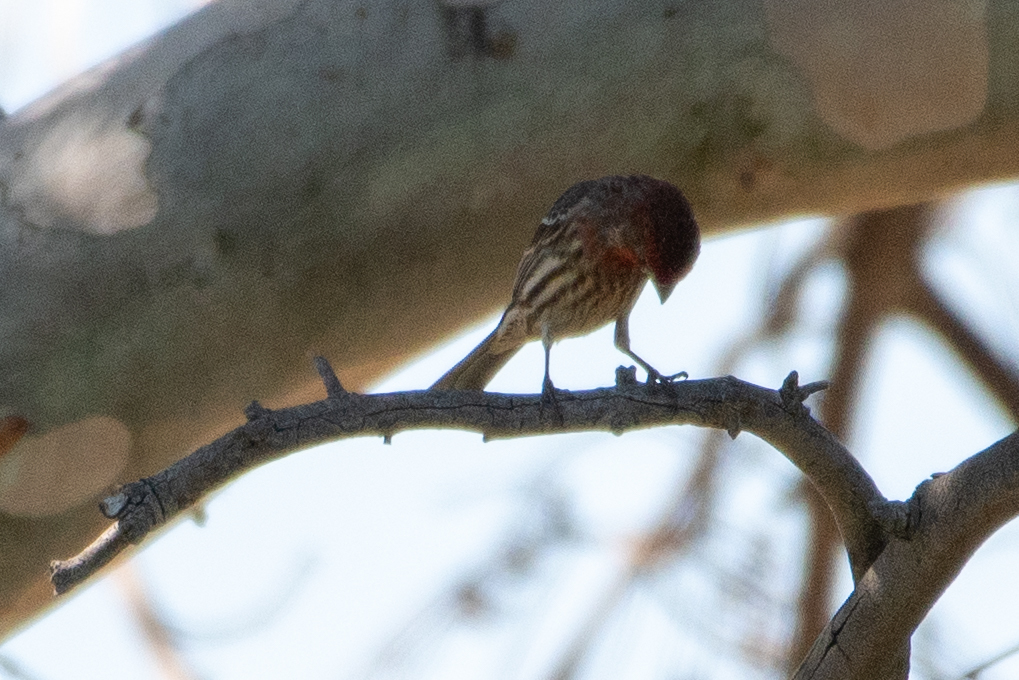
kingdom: Animalia
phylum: Chordata
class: Aves
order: Passeriformes
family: Fringillidae
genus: Haemorhous
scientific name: Haemorhous mexicanus
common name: House finch
